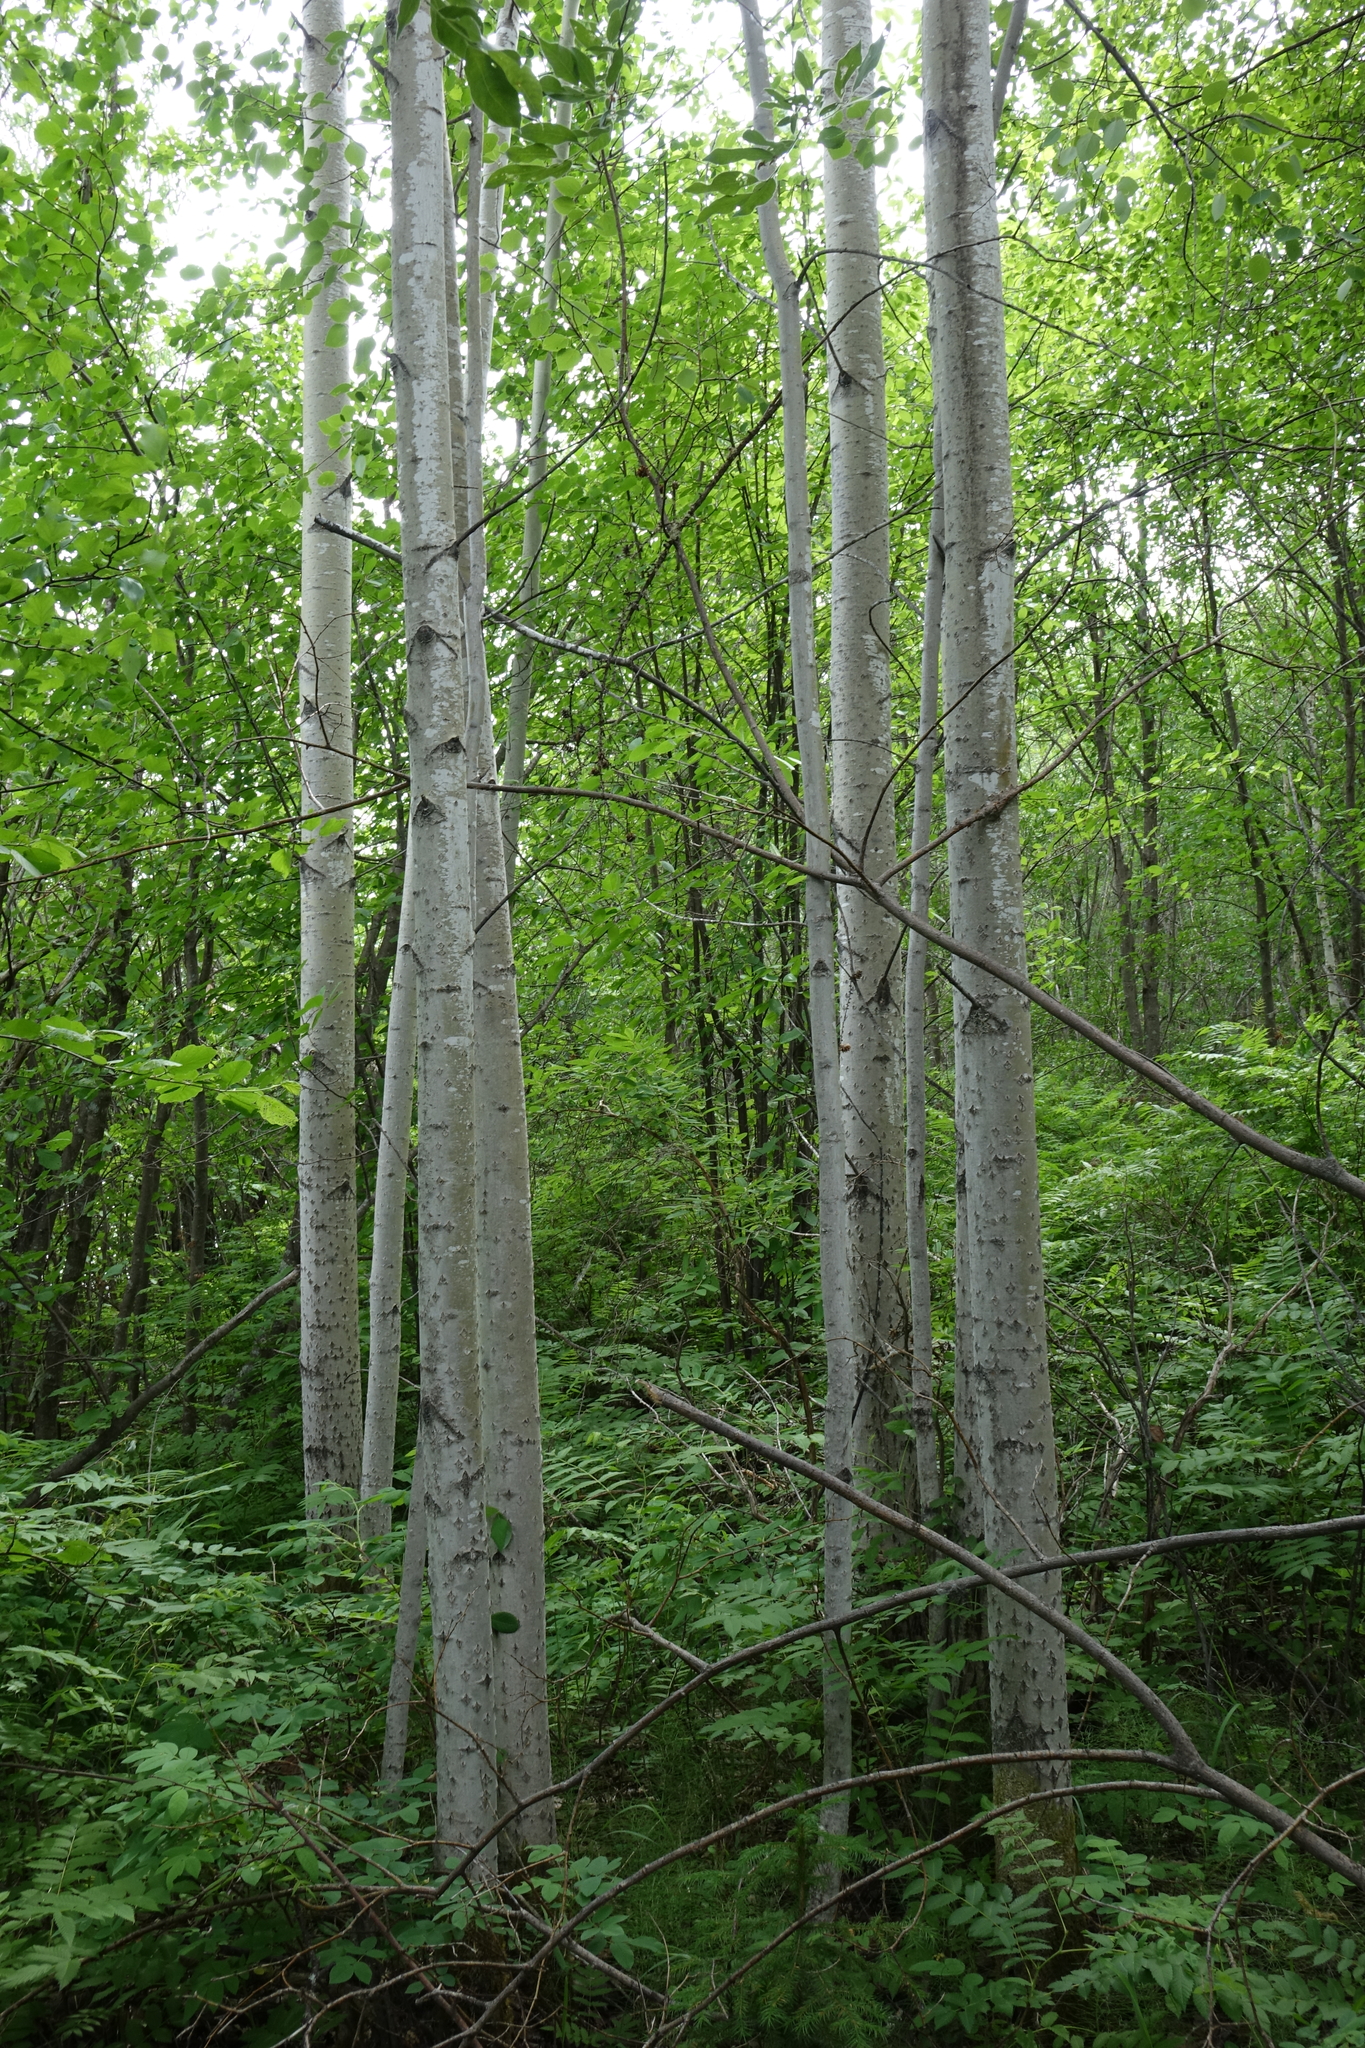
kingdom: Plantae
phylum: Tracheophyta
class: Magnoliopsida
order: Malpighiales
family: Salicaceae
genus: Populus
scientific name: Populus tremula
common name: European aspen
